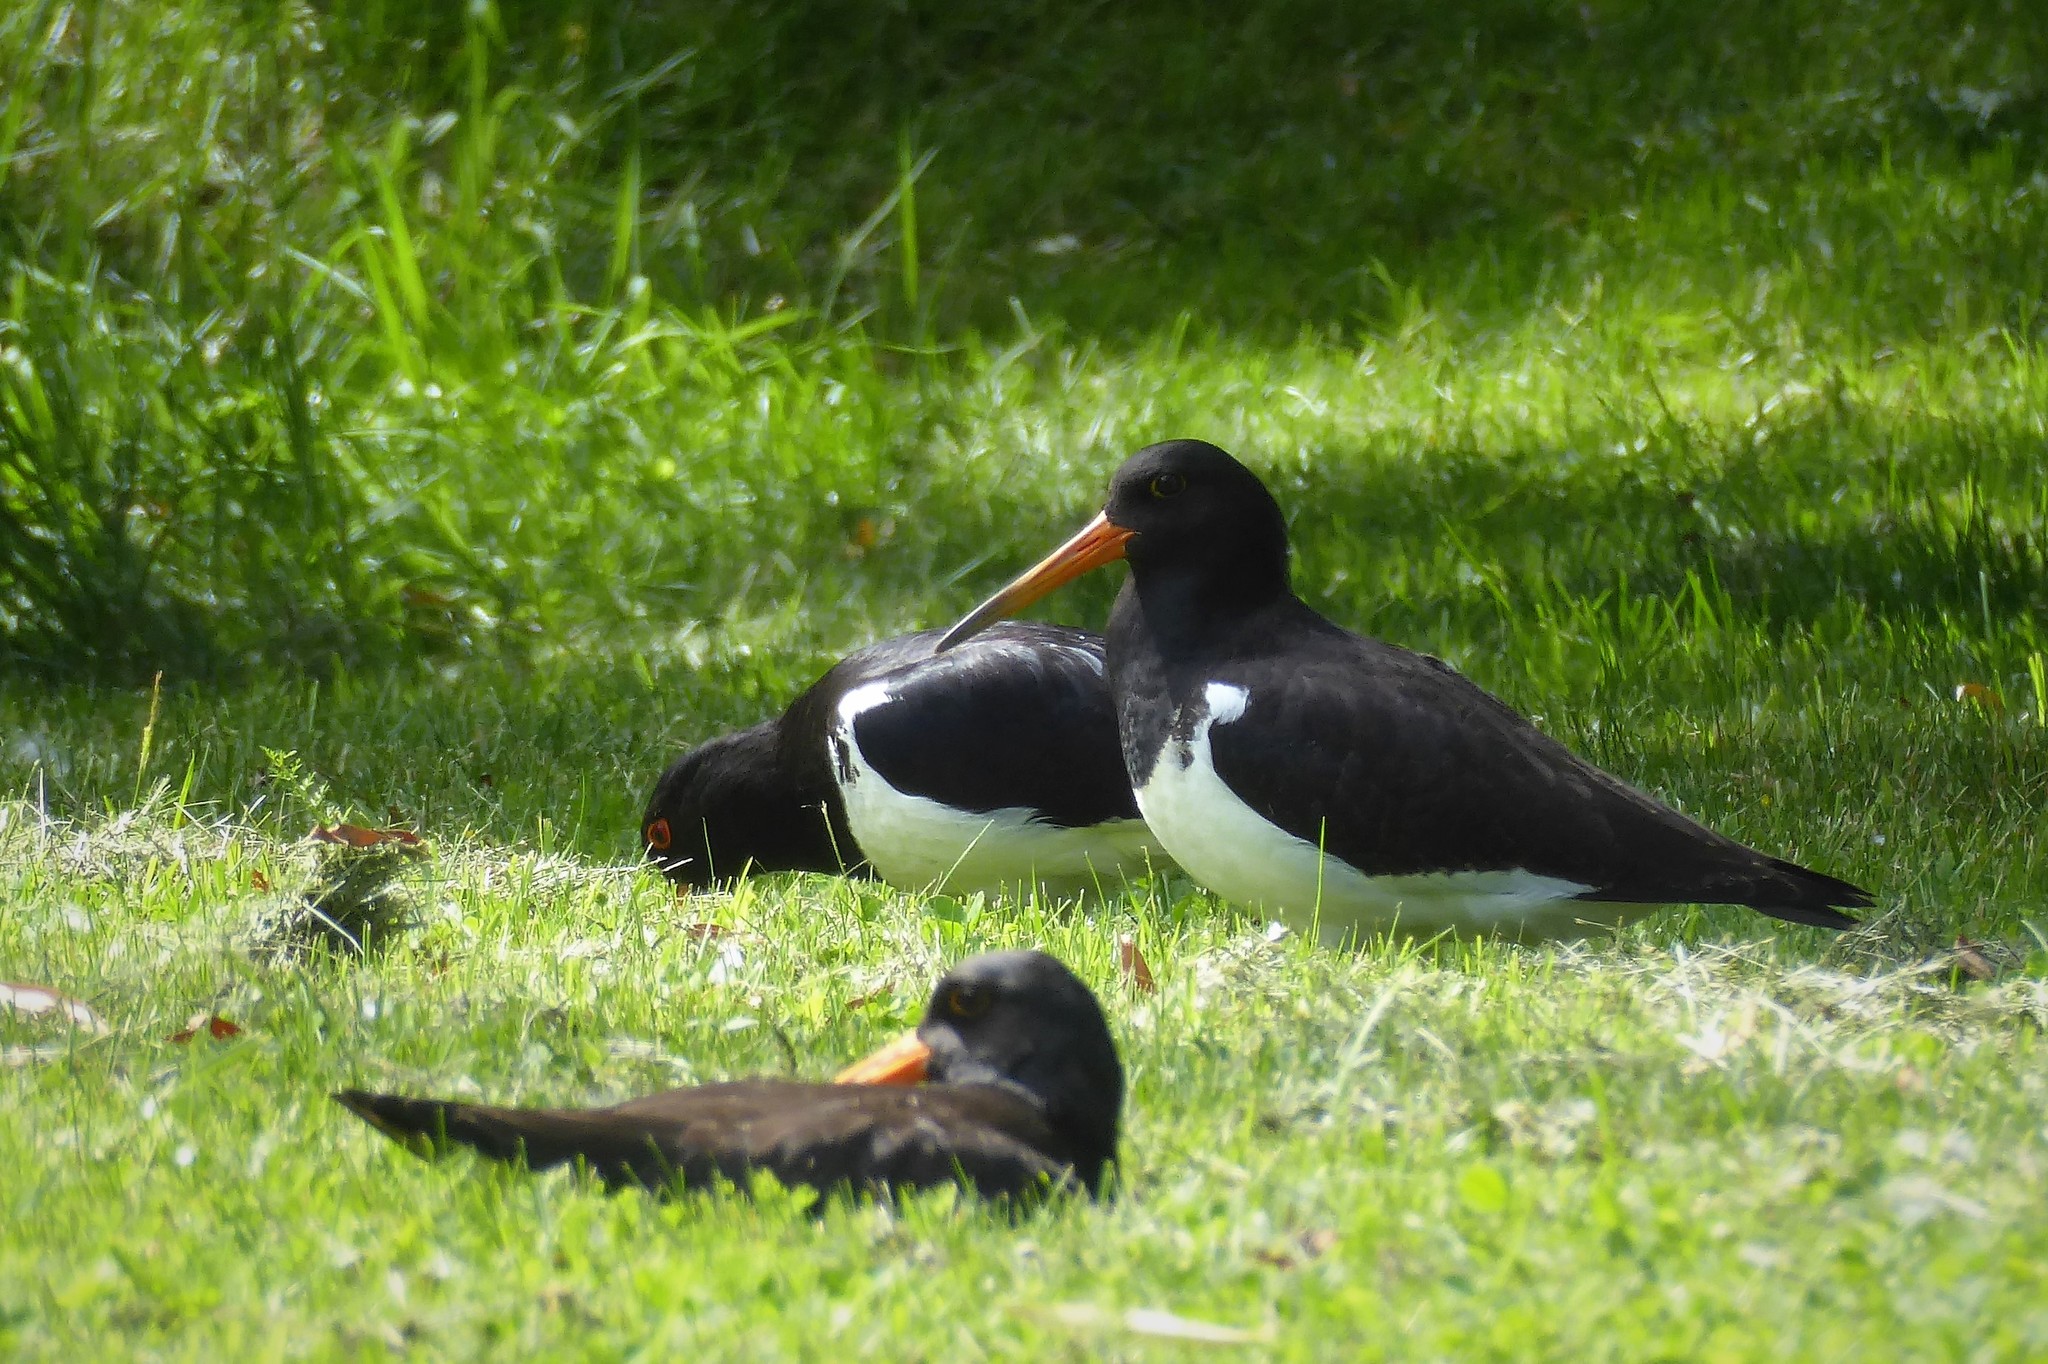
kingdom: Animalia
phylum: Chordata
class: Aves
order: Charadriiformes
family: Haematopodidae
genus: Haematopus
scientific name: Haematopus finschi
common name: South island oystercatcher
